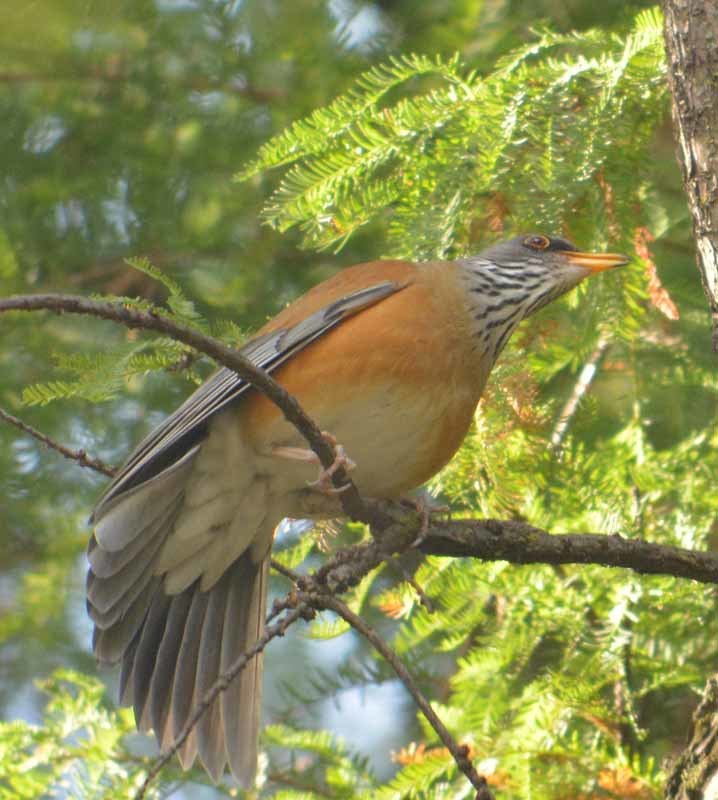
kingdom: Animalia
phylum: Chordata
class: Aves
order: Passeriformes
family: Turdidae
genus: Turdus
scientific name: Turdus rufopalliatus
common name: Rufous-backed robin
